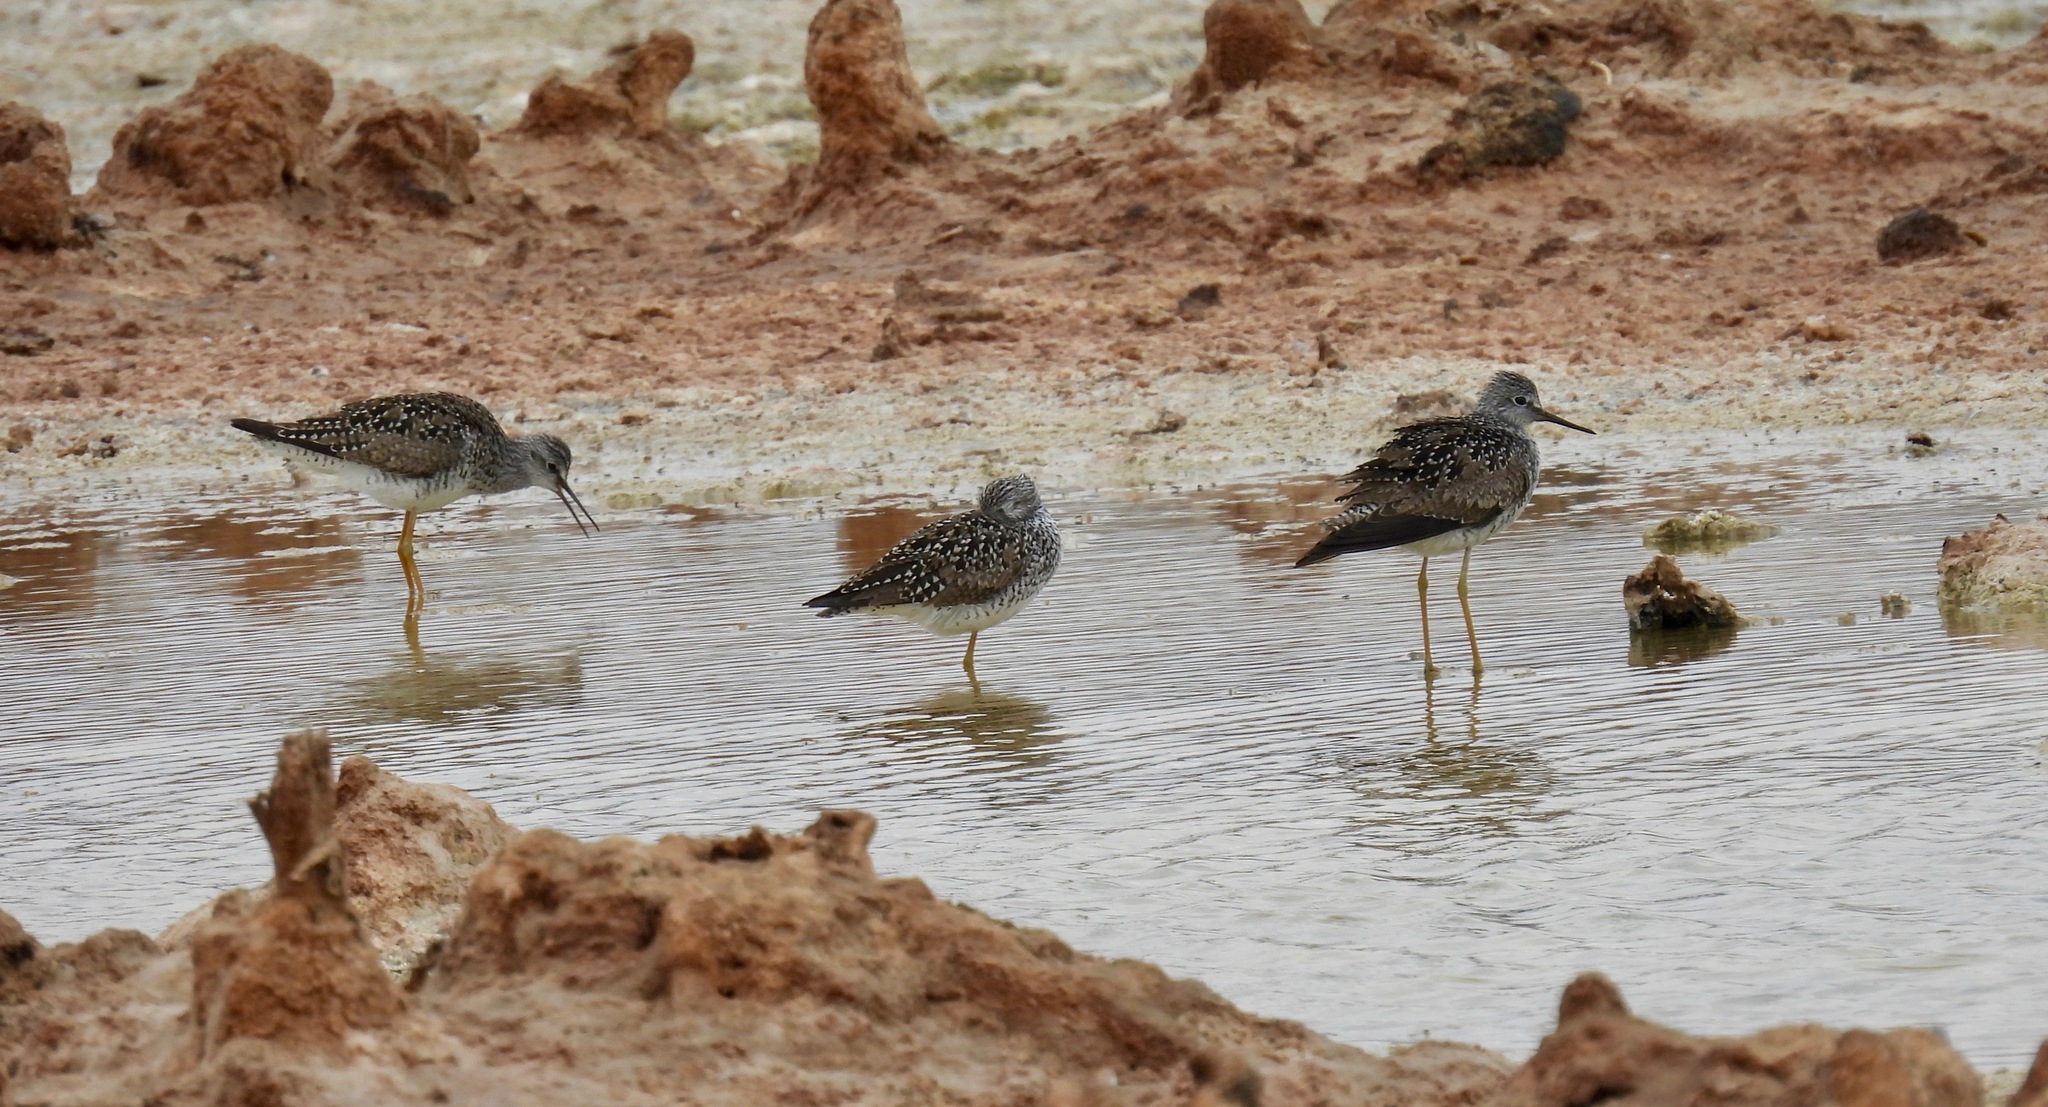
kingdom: Animalia
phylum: Chordata
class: Aves
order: Charadriiformes
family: Scolopacidae
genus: Tringa
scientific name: Tringa flavipes
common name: Lesser yellowlegs
